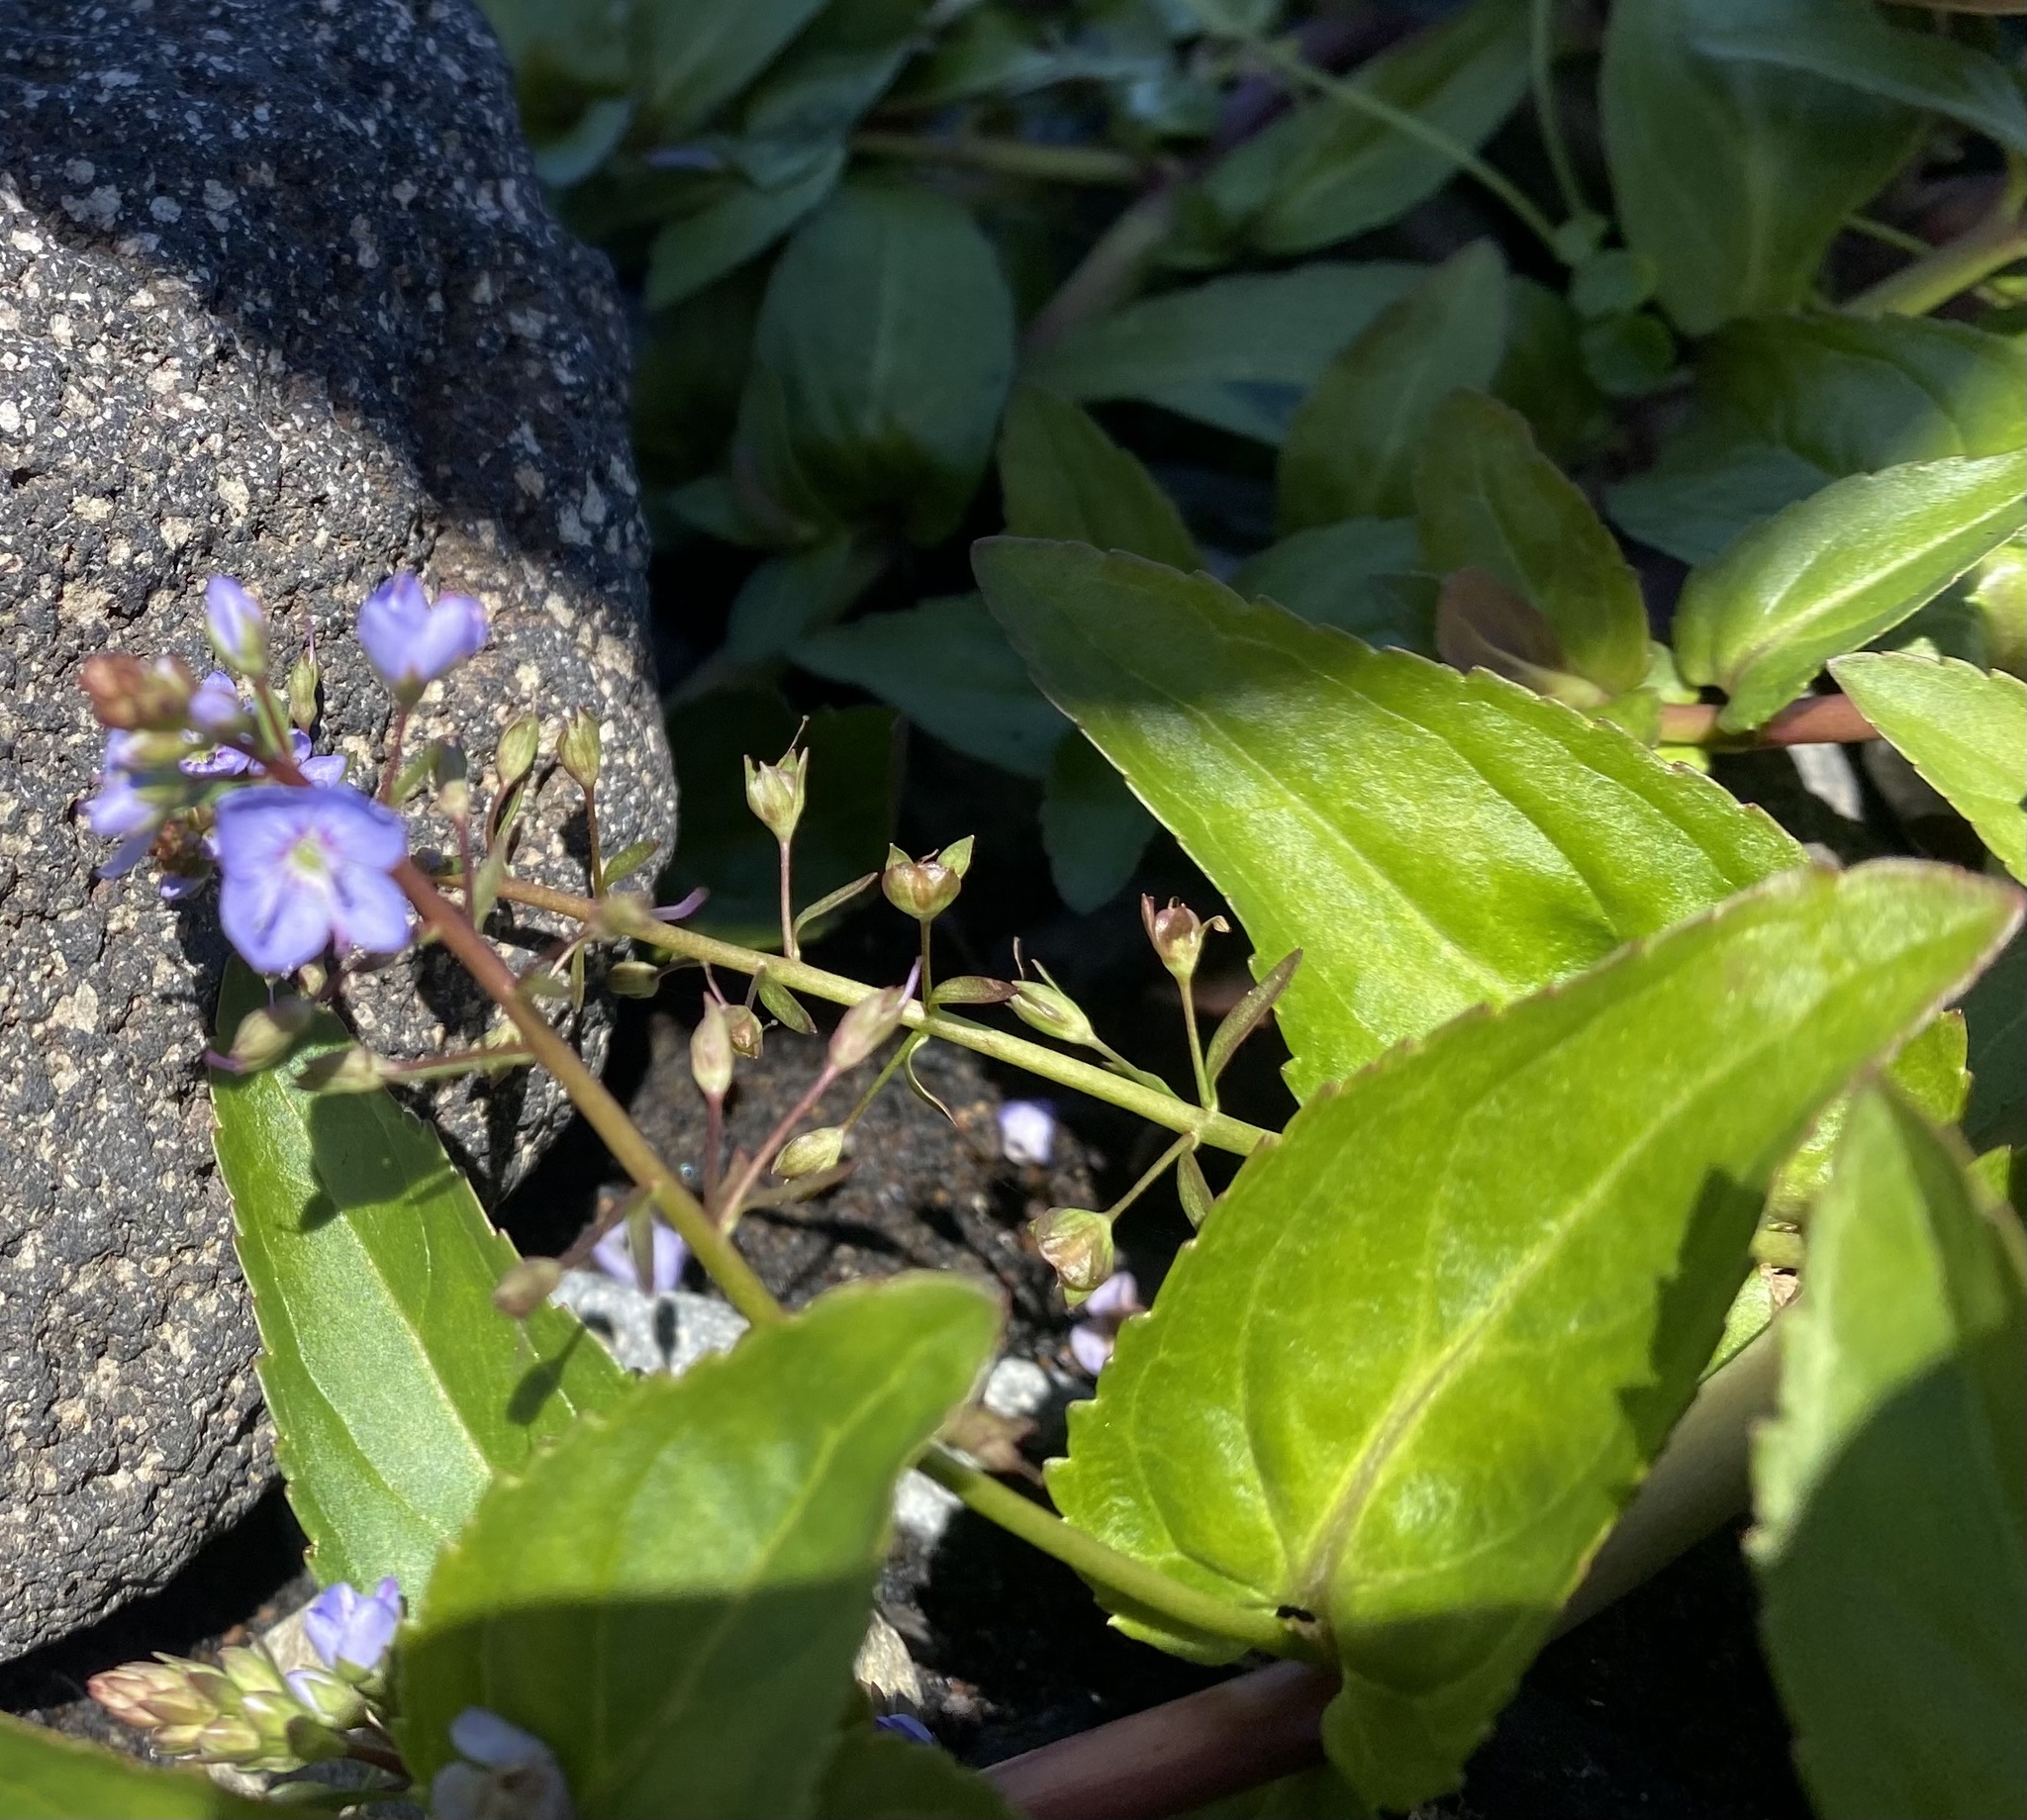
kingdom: Plantae
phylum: Tracheophyta
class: Magnoliopsida
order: Lamiales
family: Plantaginaceae
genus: Veronica
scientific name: Veronica americana
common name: American brooklime
